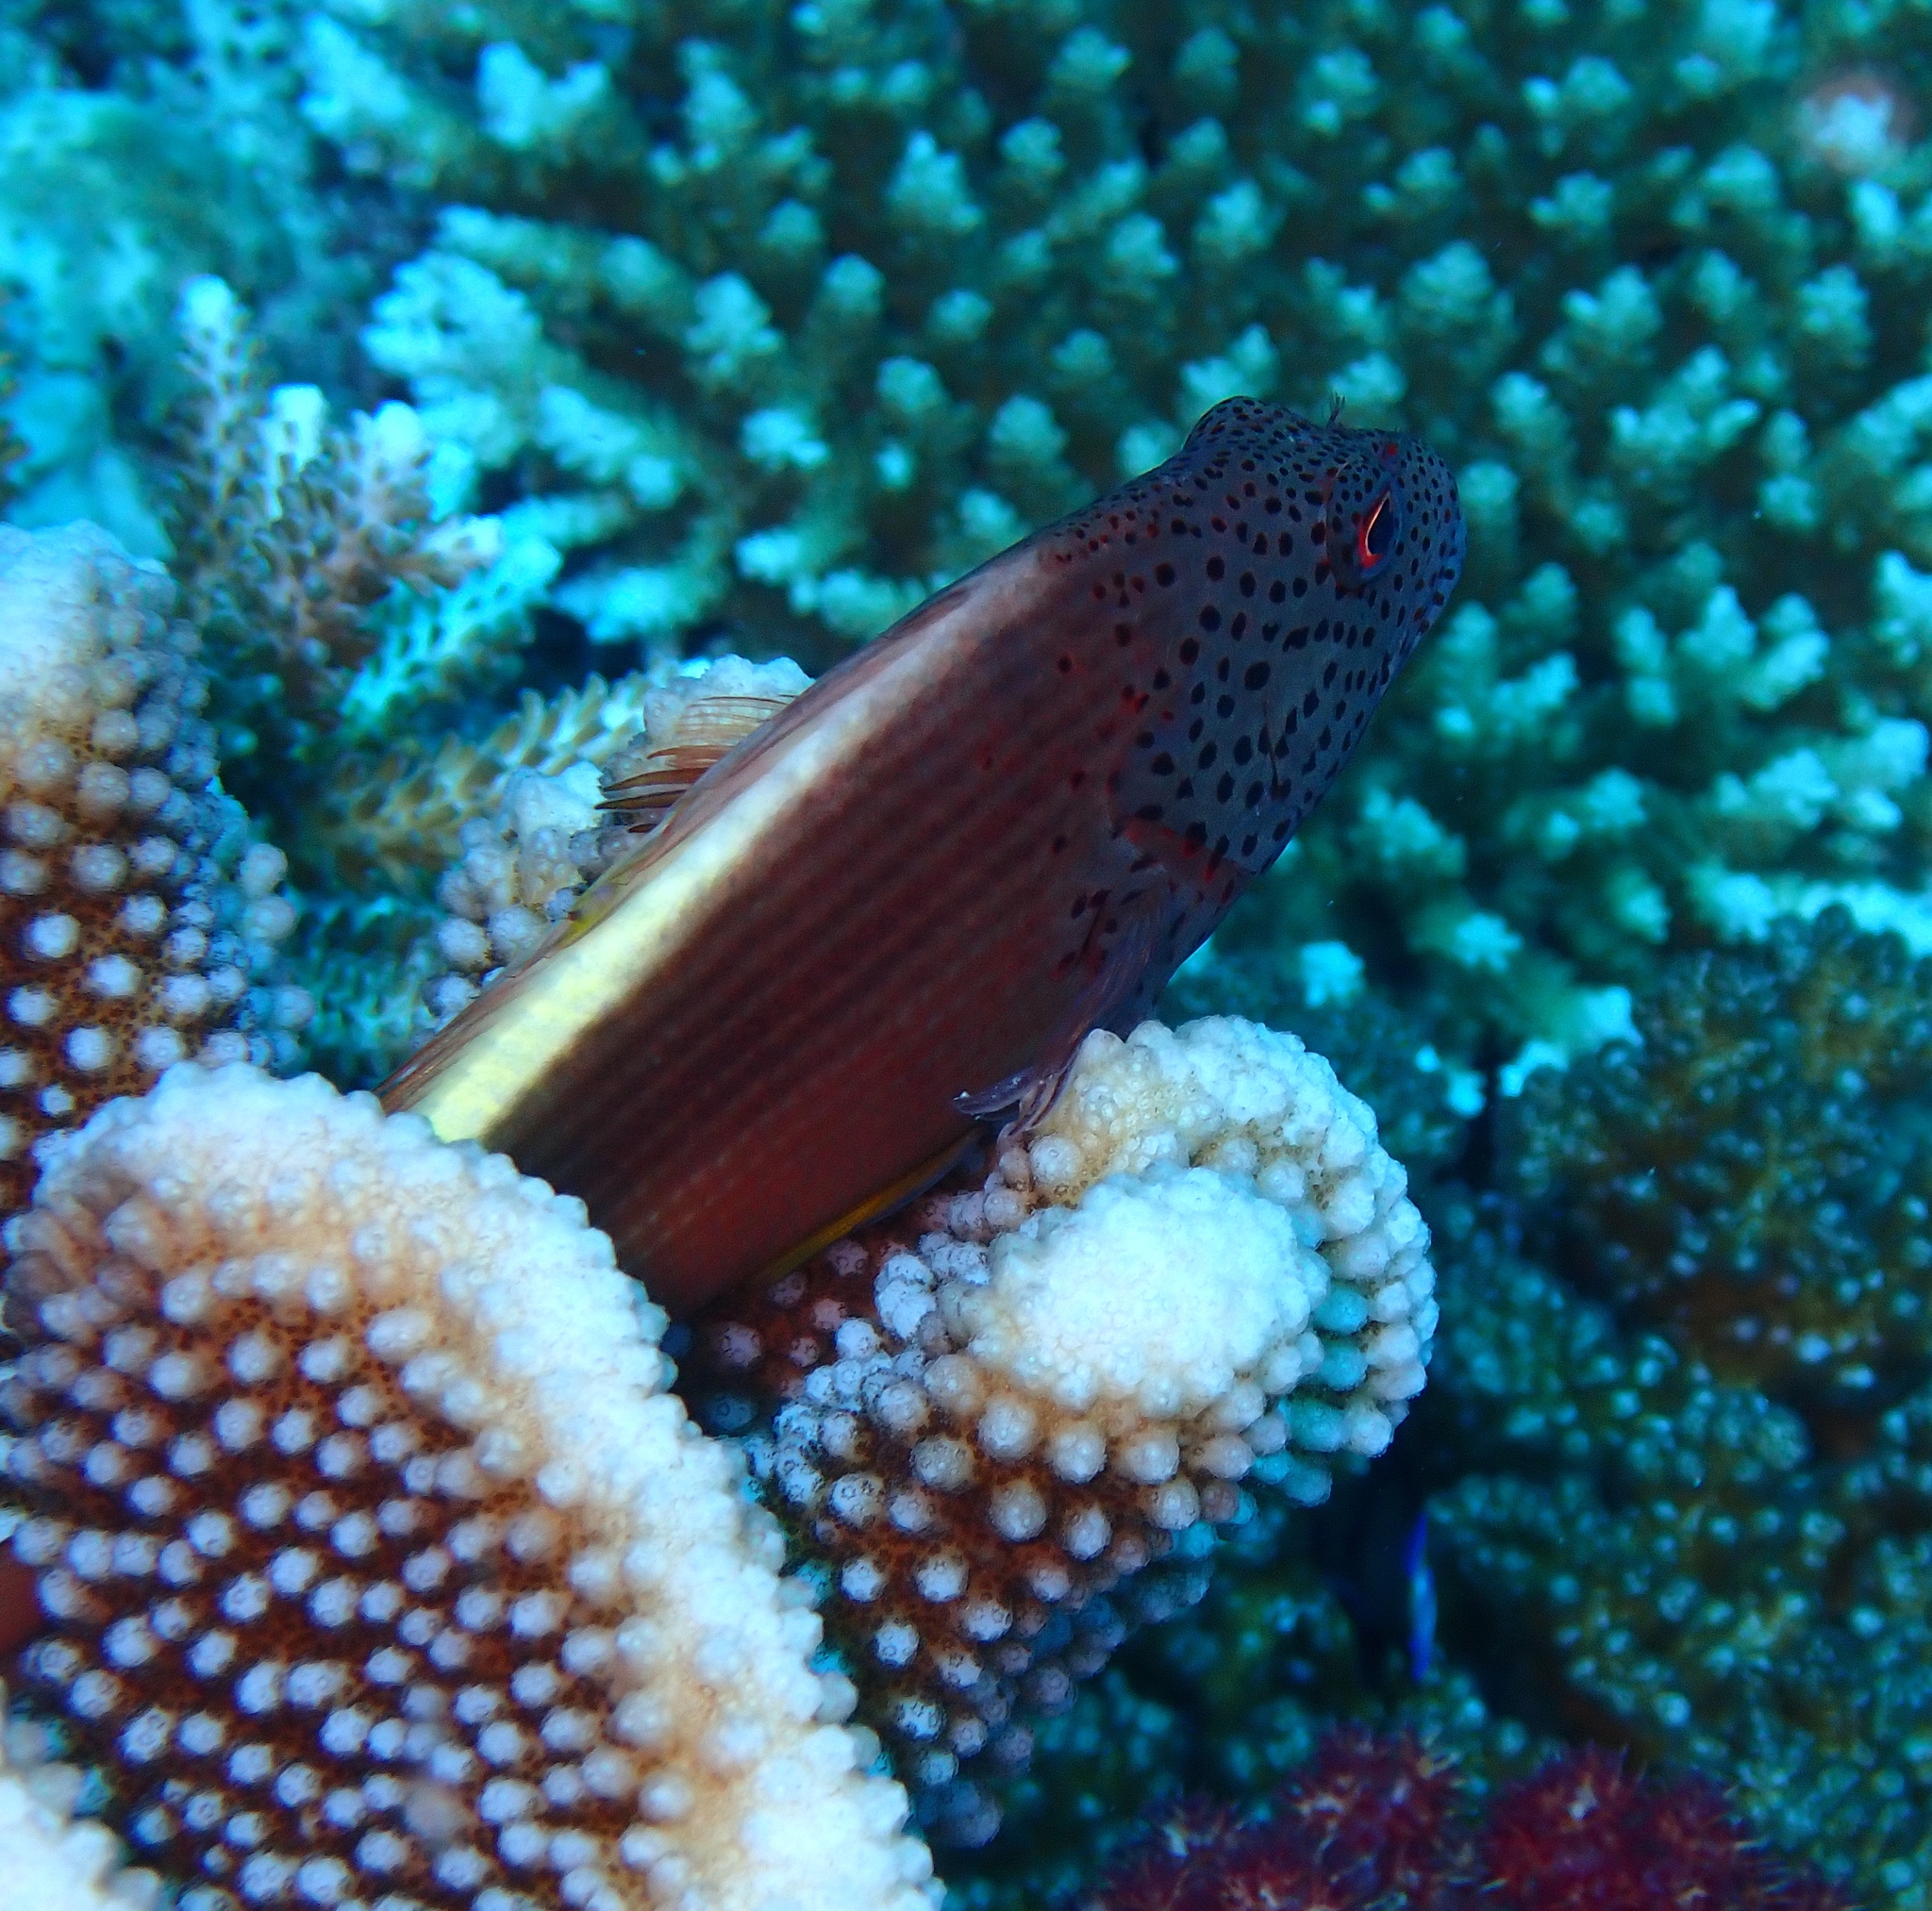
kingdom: Animalia
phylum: Chordata
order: Perciformes
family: Cirrhitidae
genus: Paracirrhites
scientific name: Paracirrhites forsteri
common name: Freckled hawkfish
